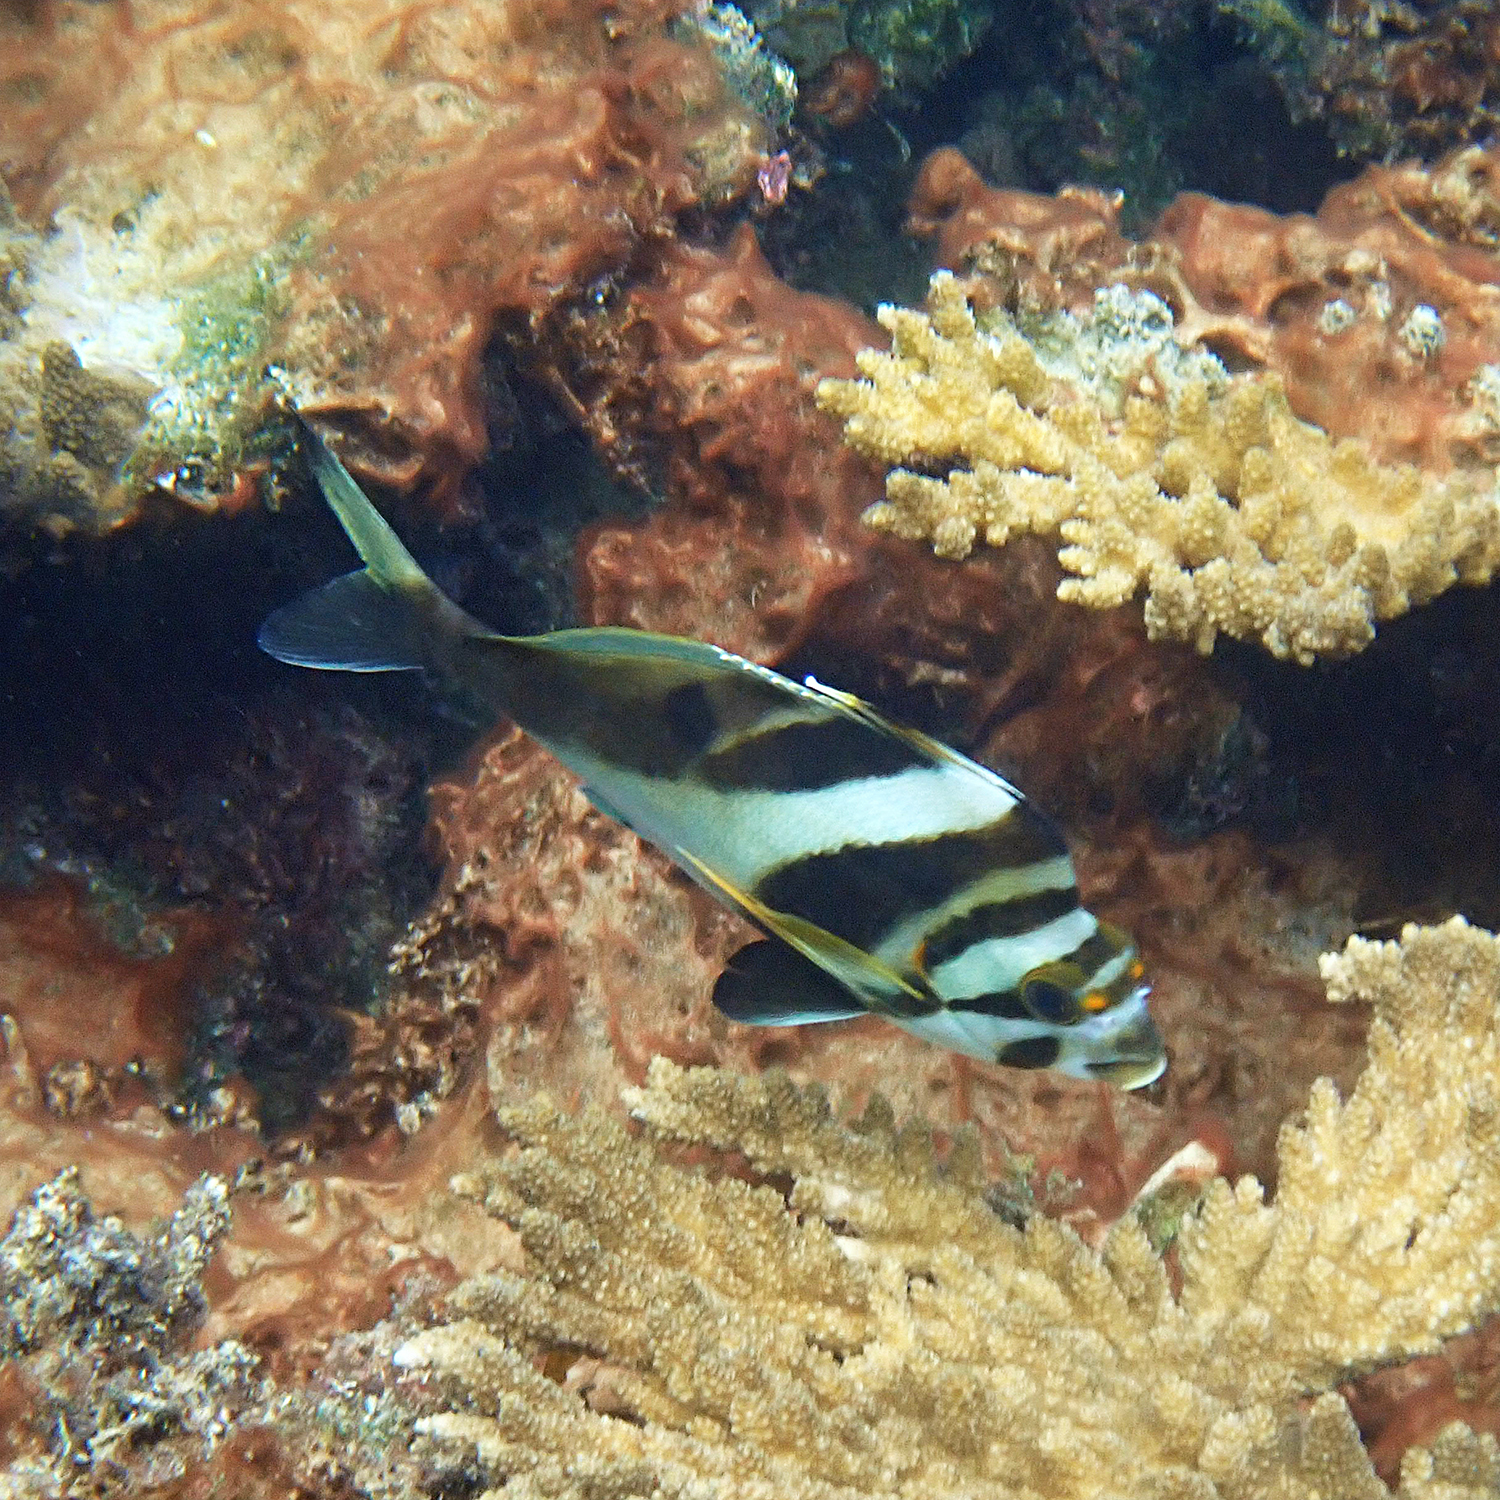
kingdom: Animalia
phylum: Chordata
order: Perciformes
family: Cheilodactylidae
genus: Cheilodactylus
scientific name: Cheilodactylus francisi
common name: Blacktip morwong
